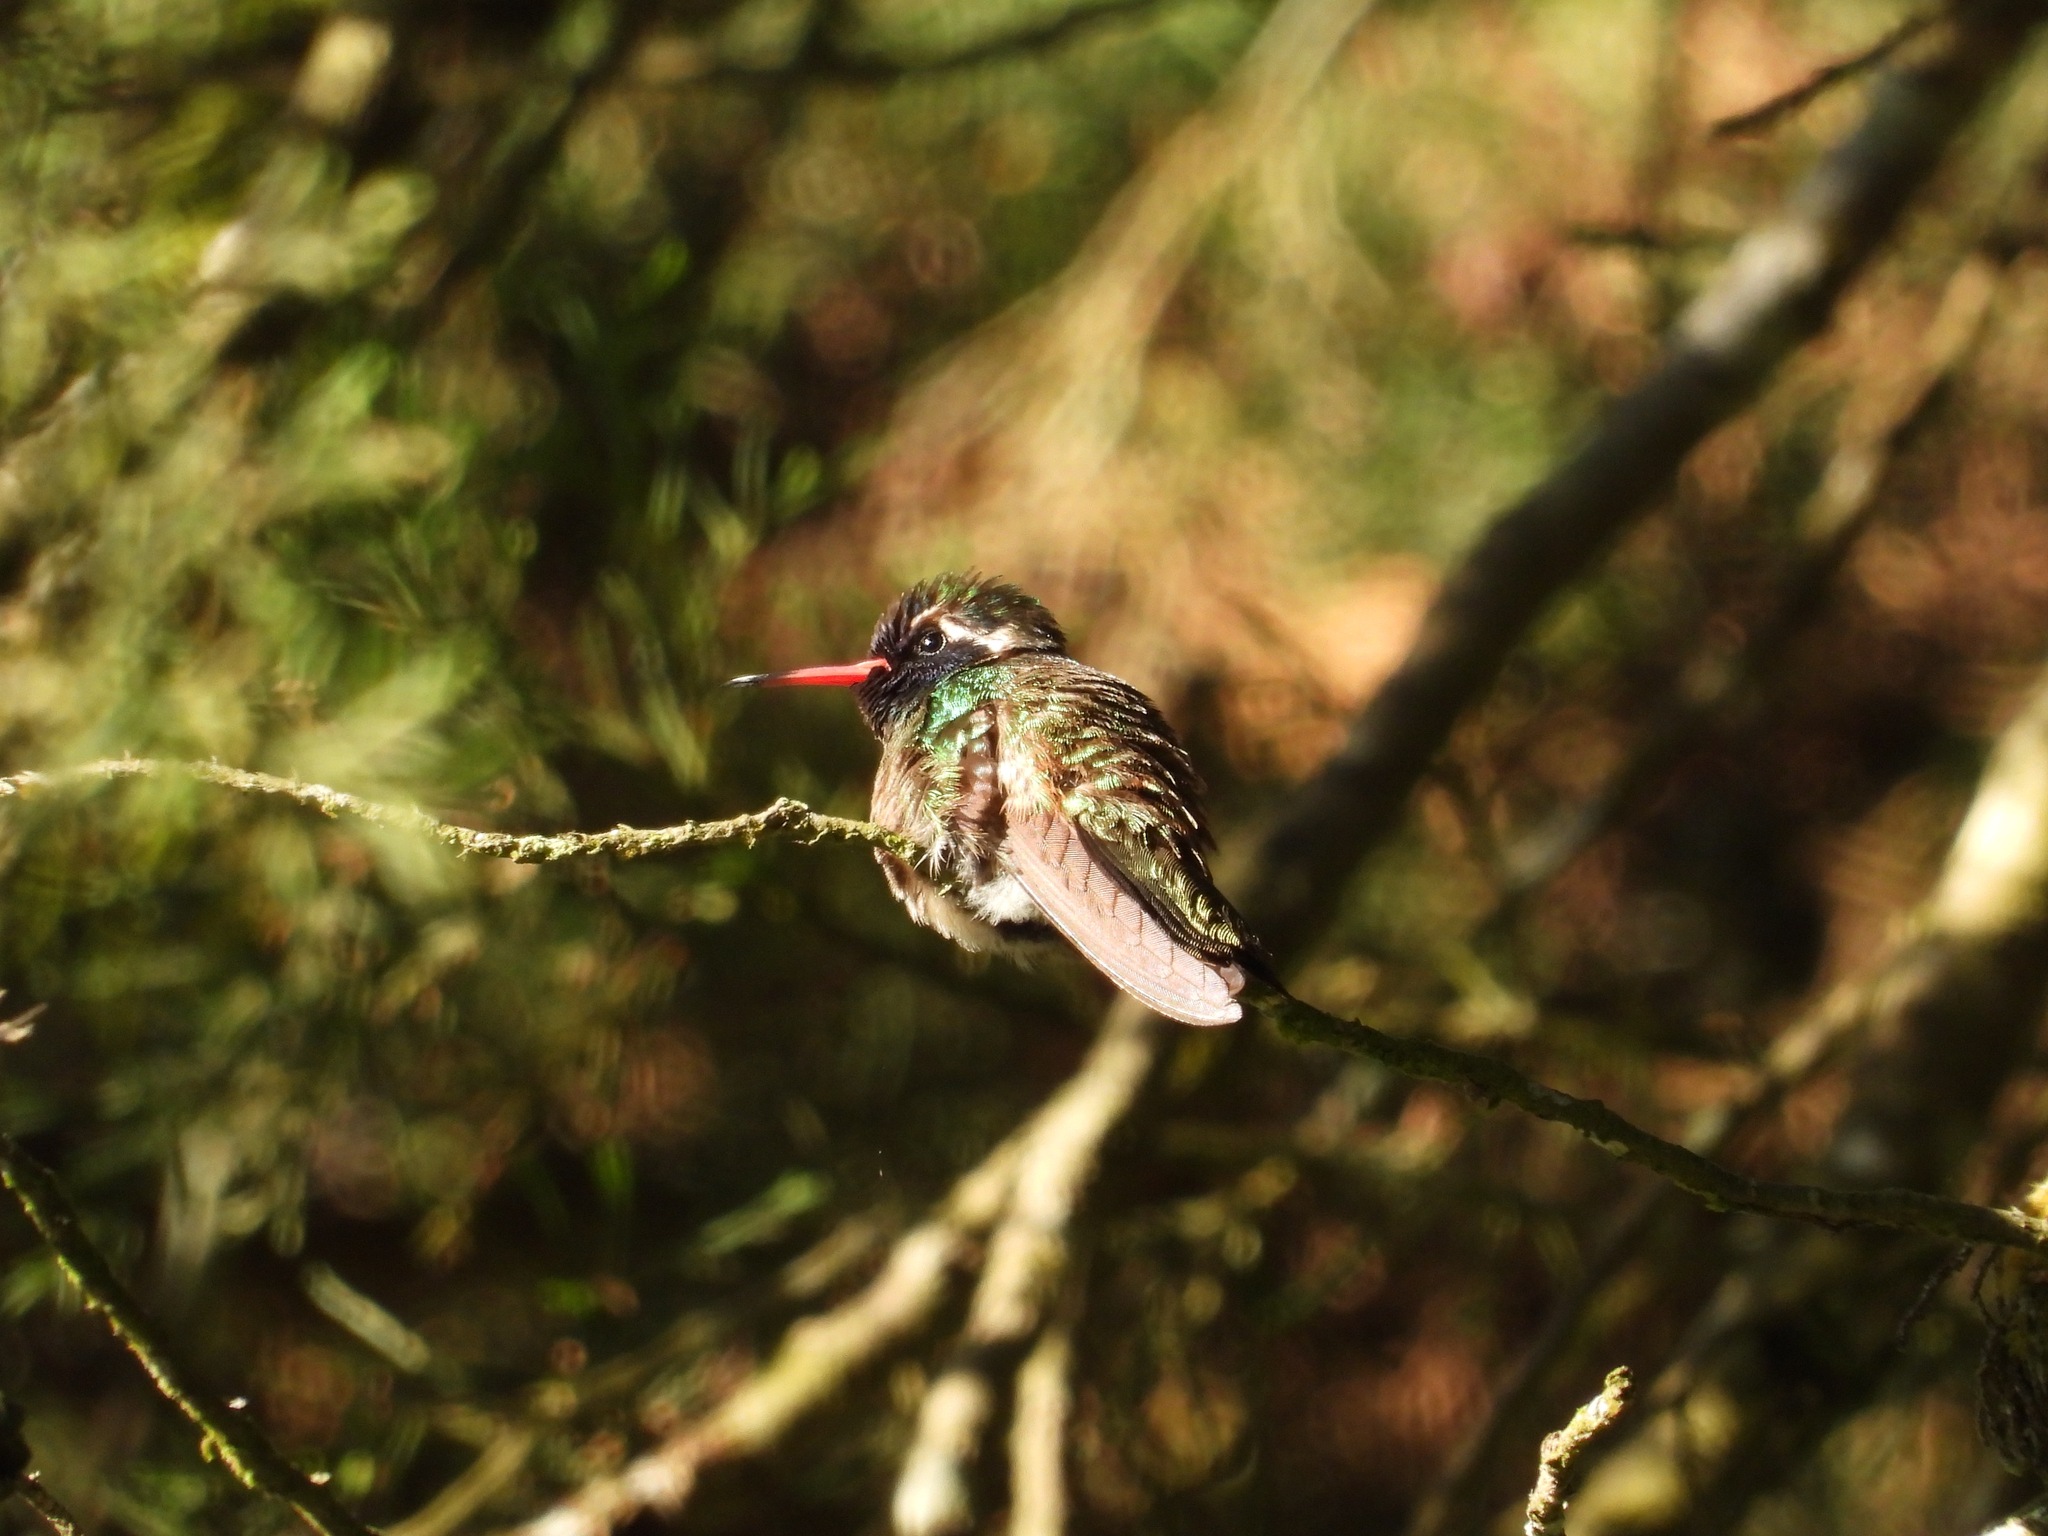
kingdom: Animalia
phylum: Chordata
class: Aves
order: Apodiformes
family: Trochilidae
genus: Basilinna
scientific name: Basilinna leucotis
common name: White-eared hummingbird
